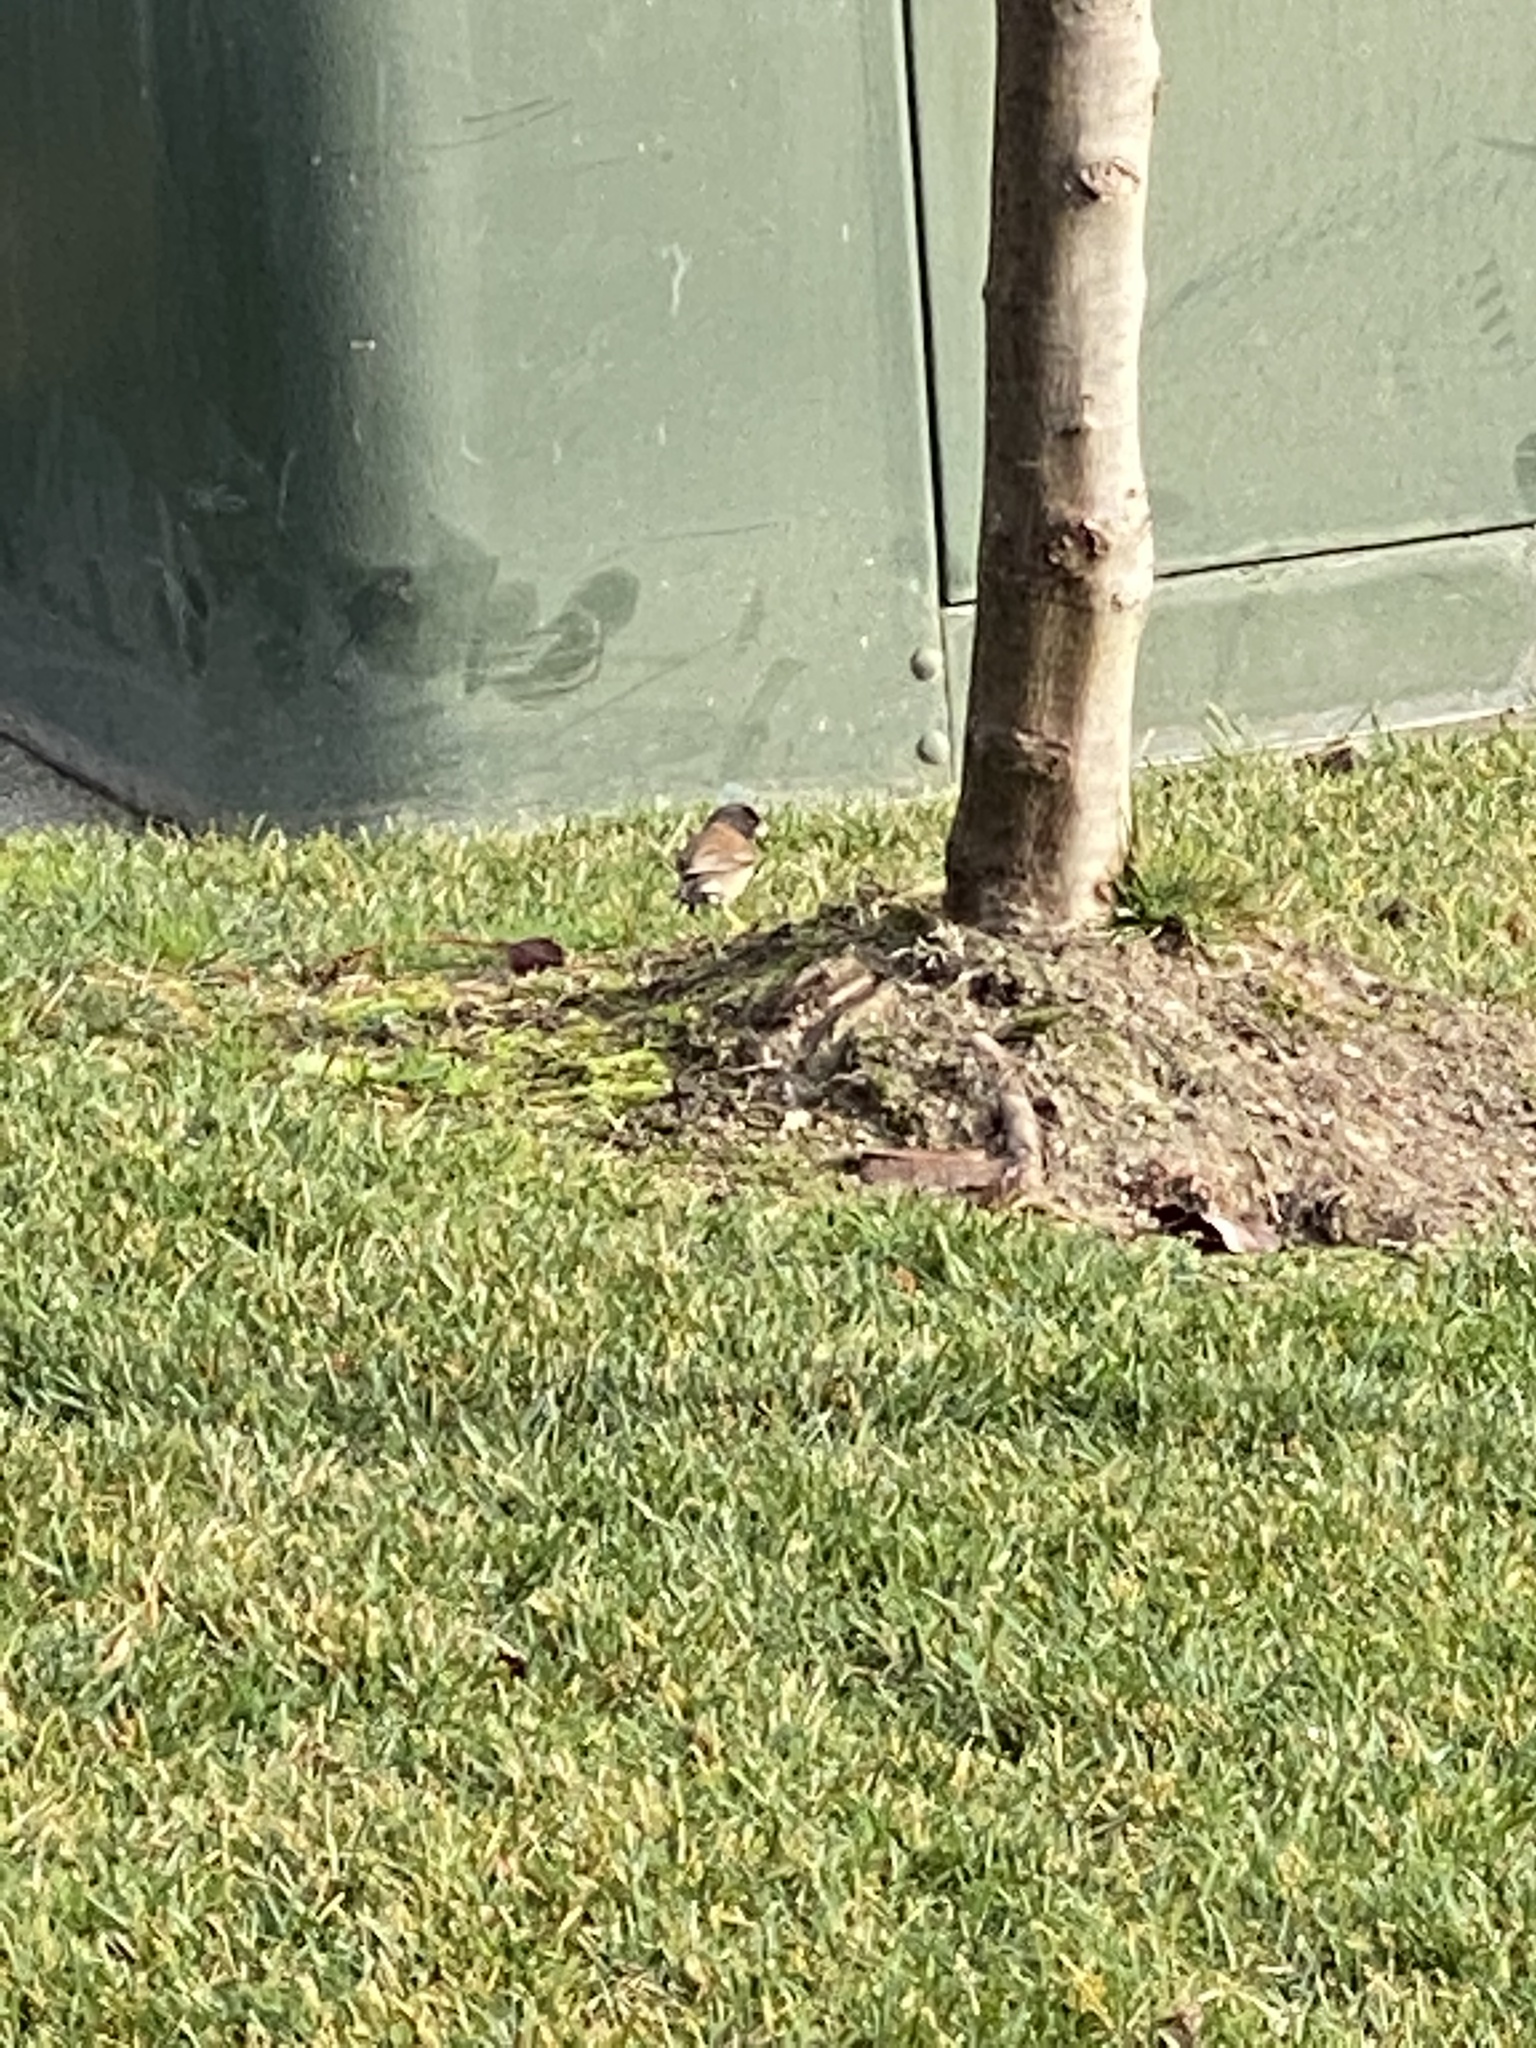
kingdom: Animalia
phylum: Chordata
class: Aves
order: Passeriformes
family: Passerellidae
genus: Junco
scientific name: Junco hyemalis
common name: Dark-eyed junco
